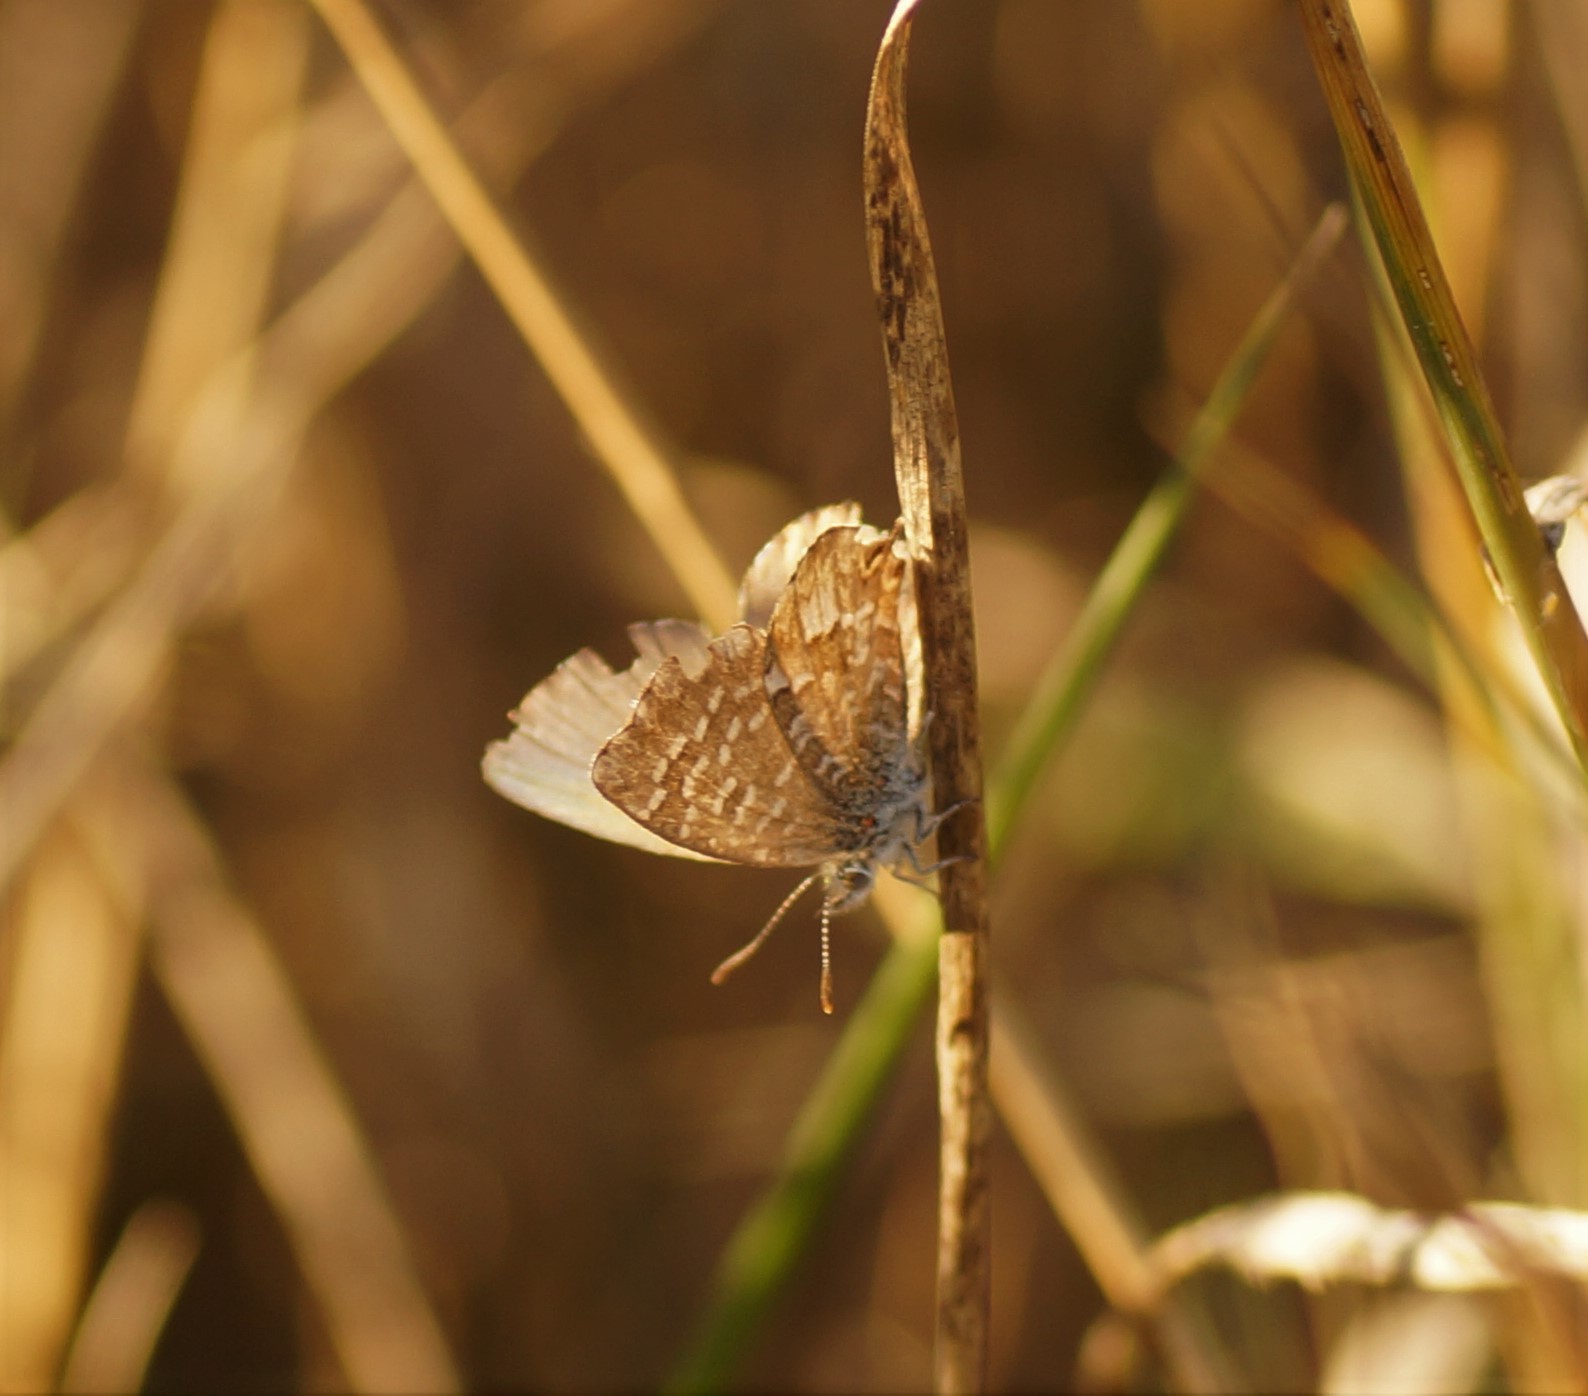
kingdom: Animalia
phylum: Arthropoda
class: Insecta
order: Lepidoptera
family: Lycaenidae
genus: Theclinesthes
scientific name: Theclinesthes serpentata
